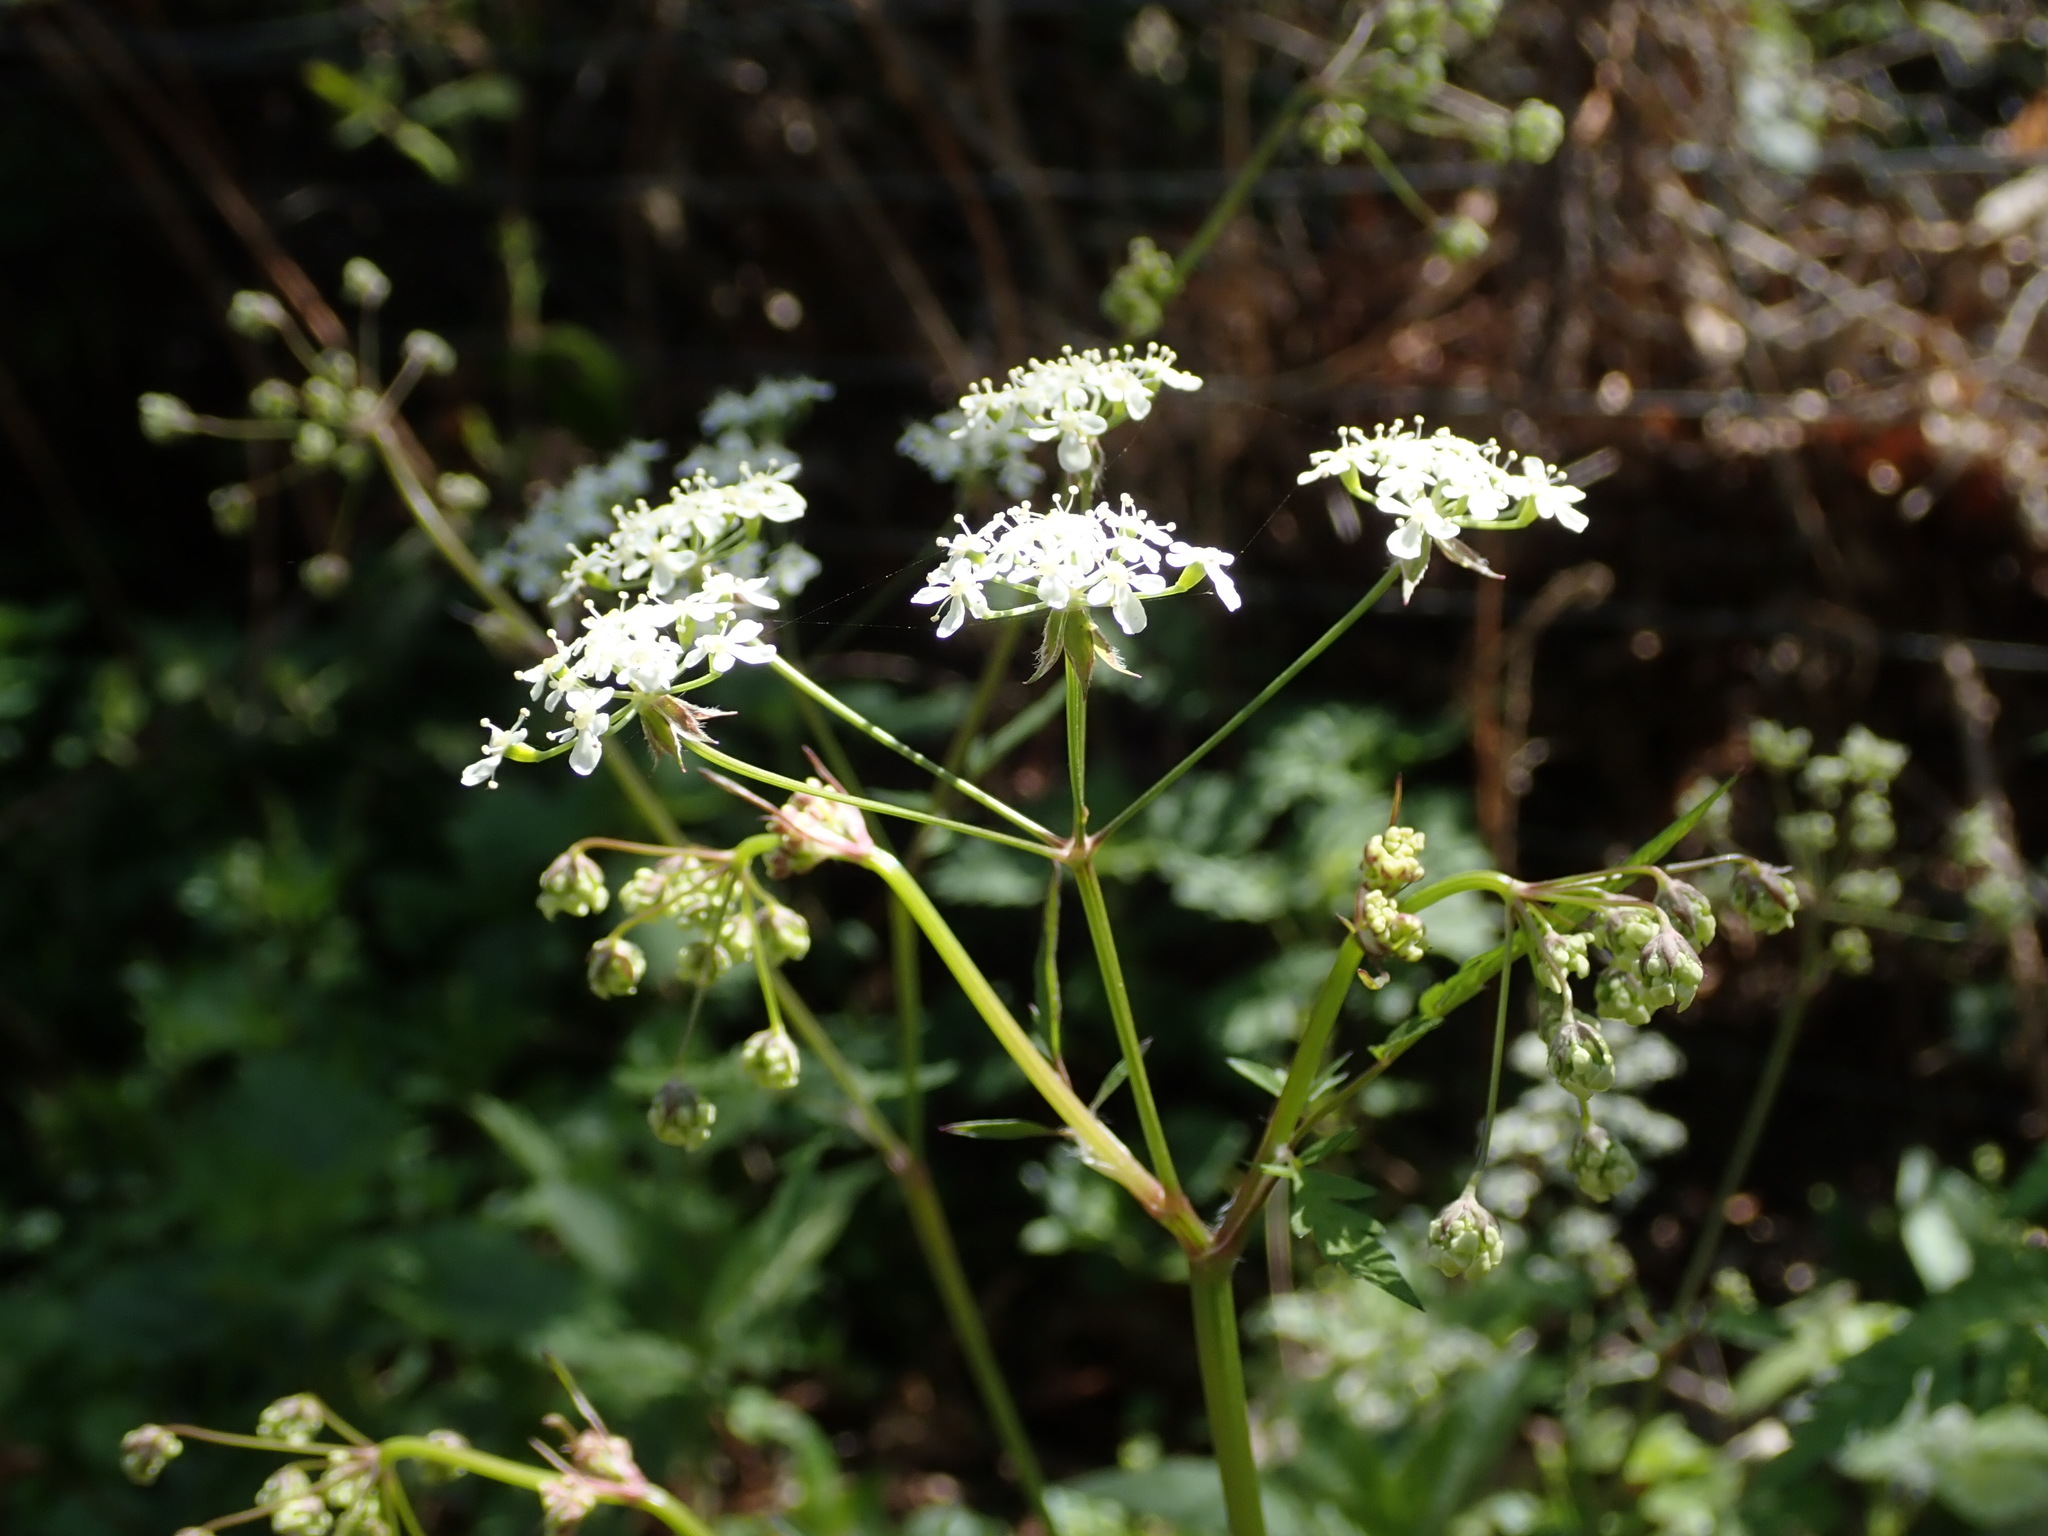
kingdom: Plantae
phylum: Tracheophyta
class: Magnoliopsida
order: Apiales
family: Apiaceae
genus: Anthriscus
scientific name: Anthriscus sylvestris
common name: Cow parsley
